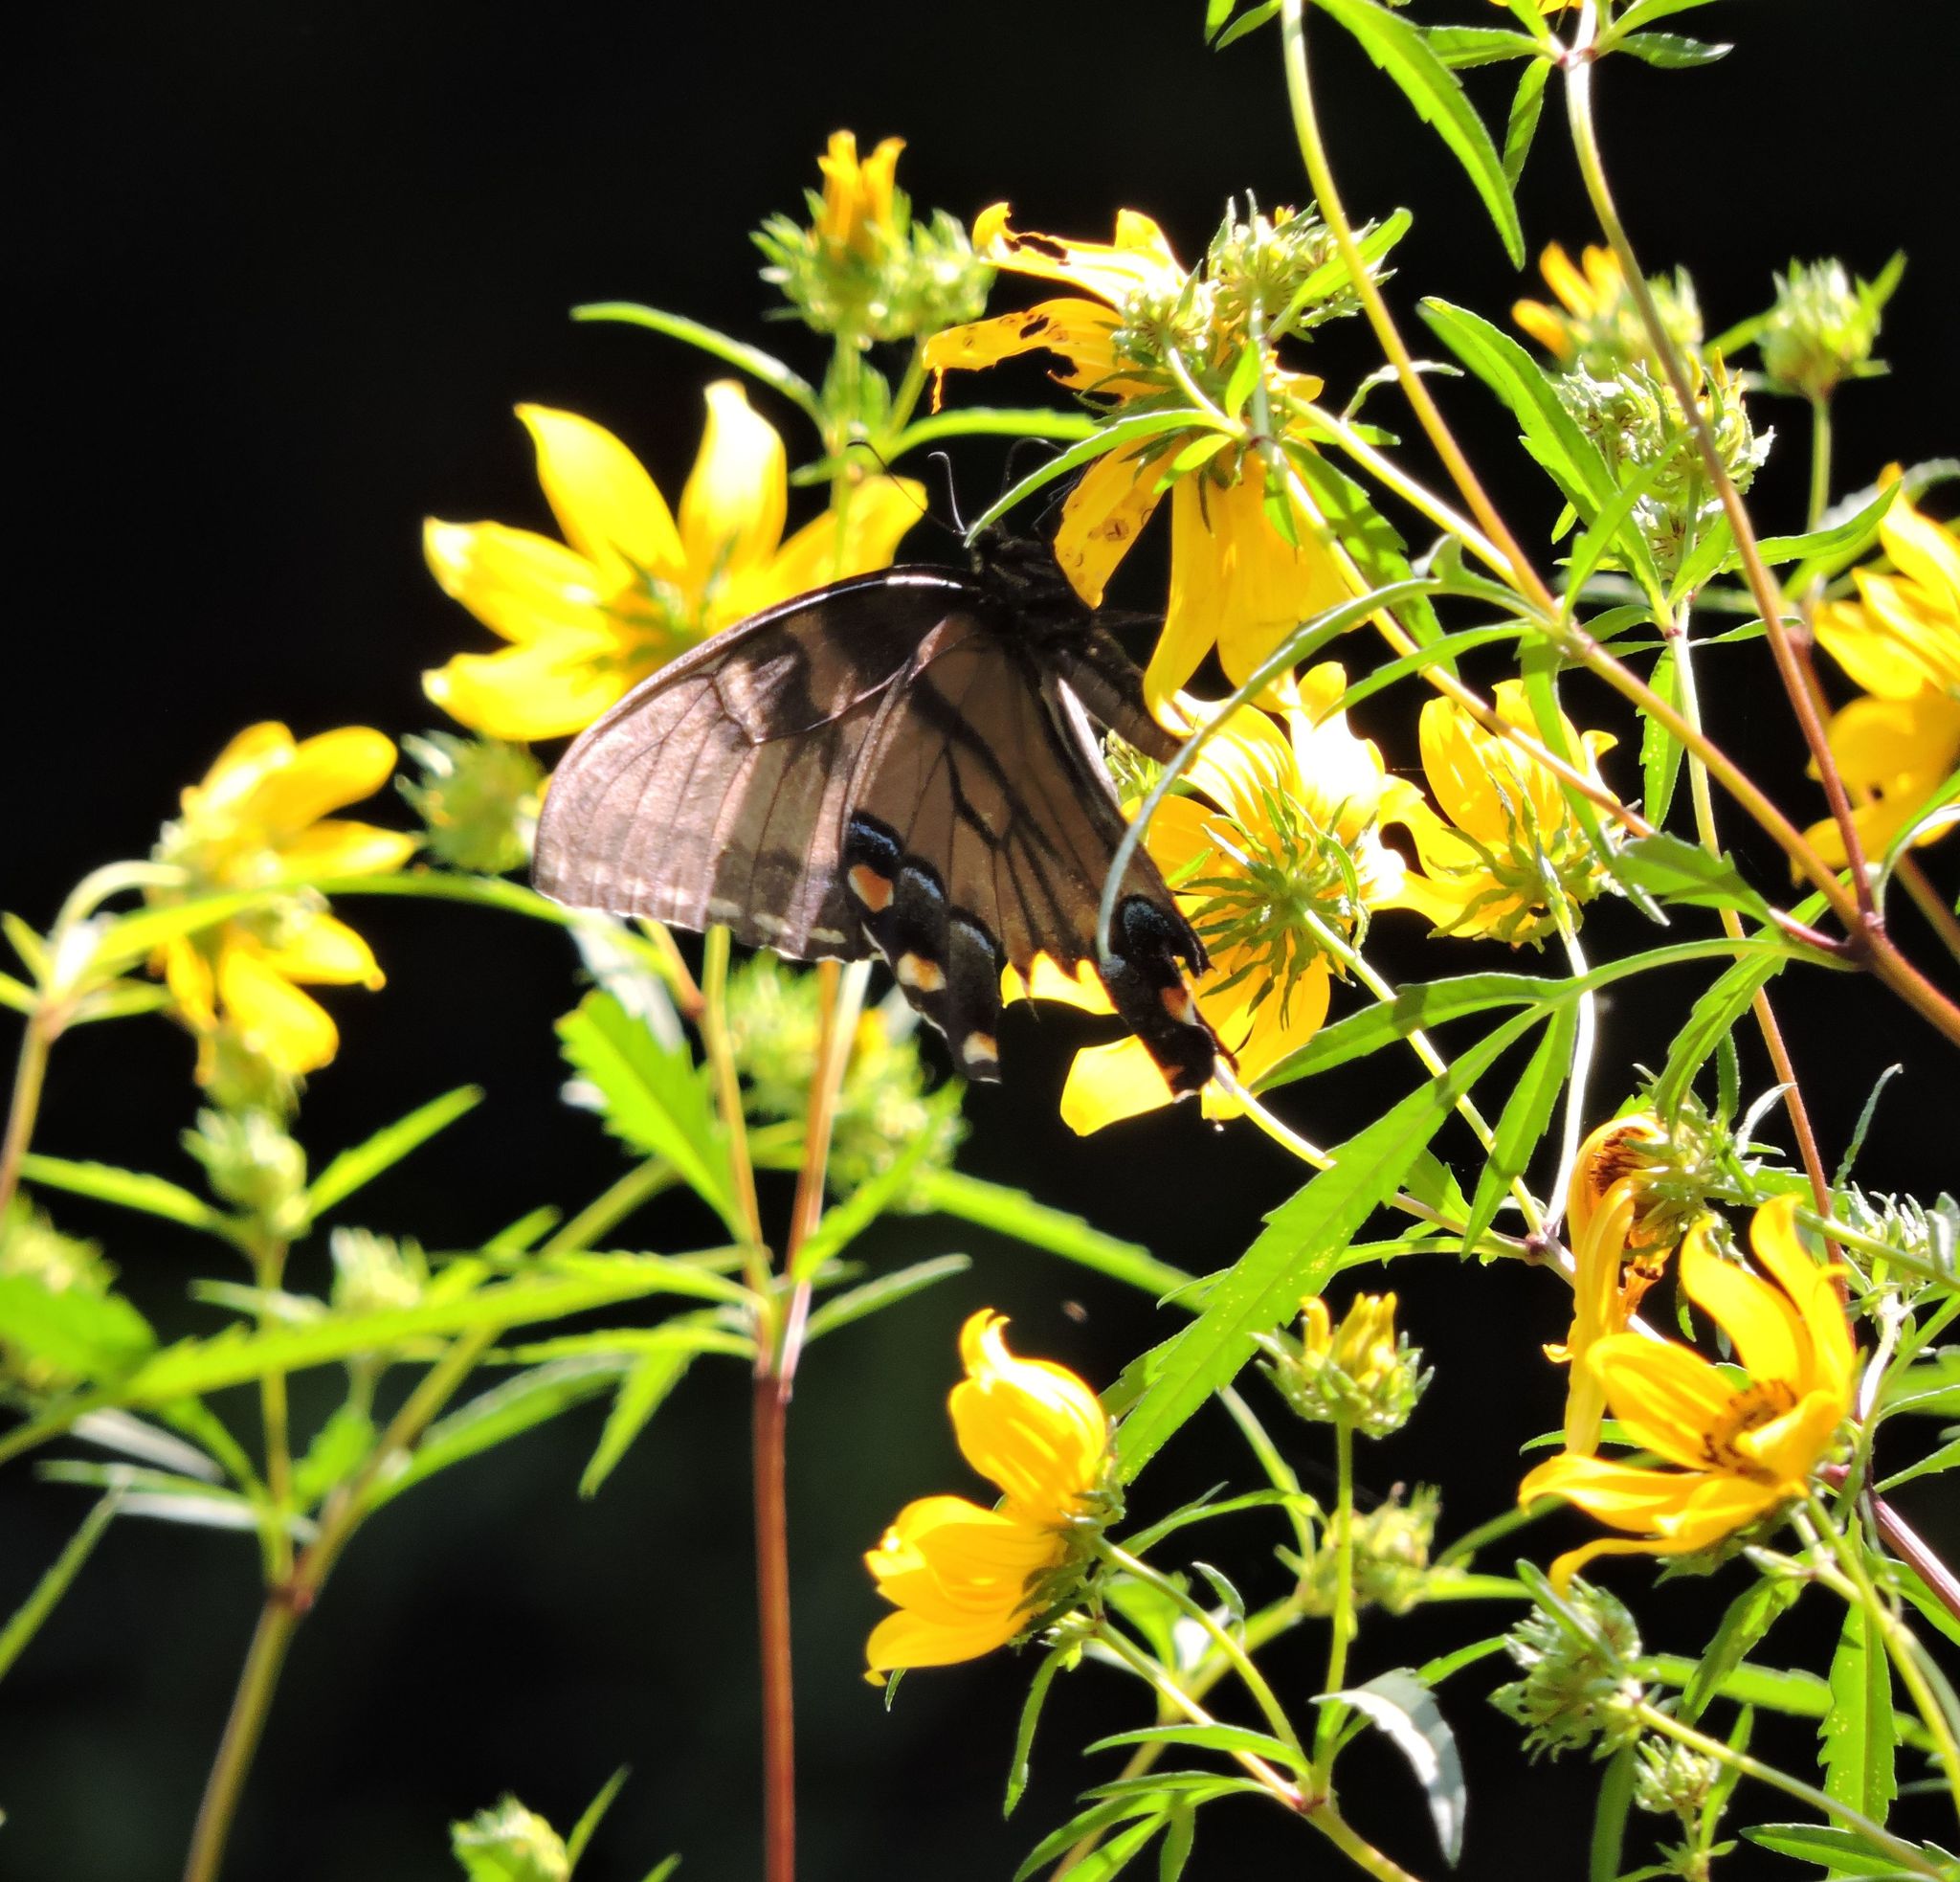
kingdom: Animalia
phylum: Arthropoda
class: Insecta
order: Lepidoptera
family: Papilionidae
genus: Papilio
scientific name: Papilio glaucus
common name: Tiger swallowtail
